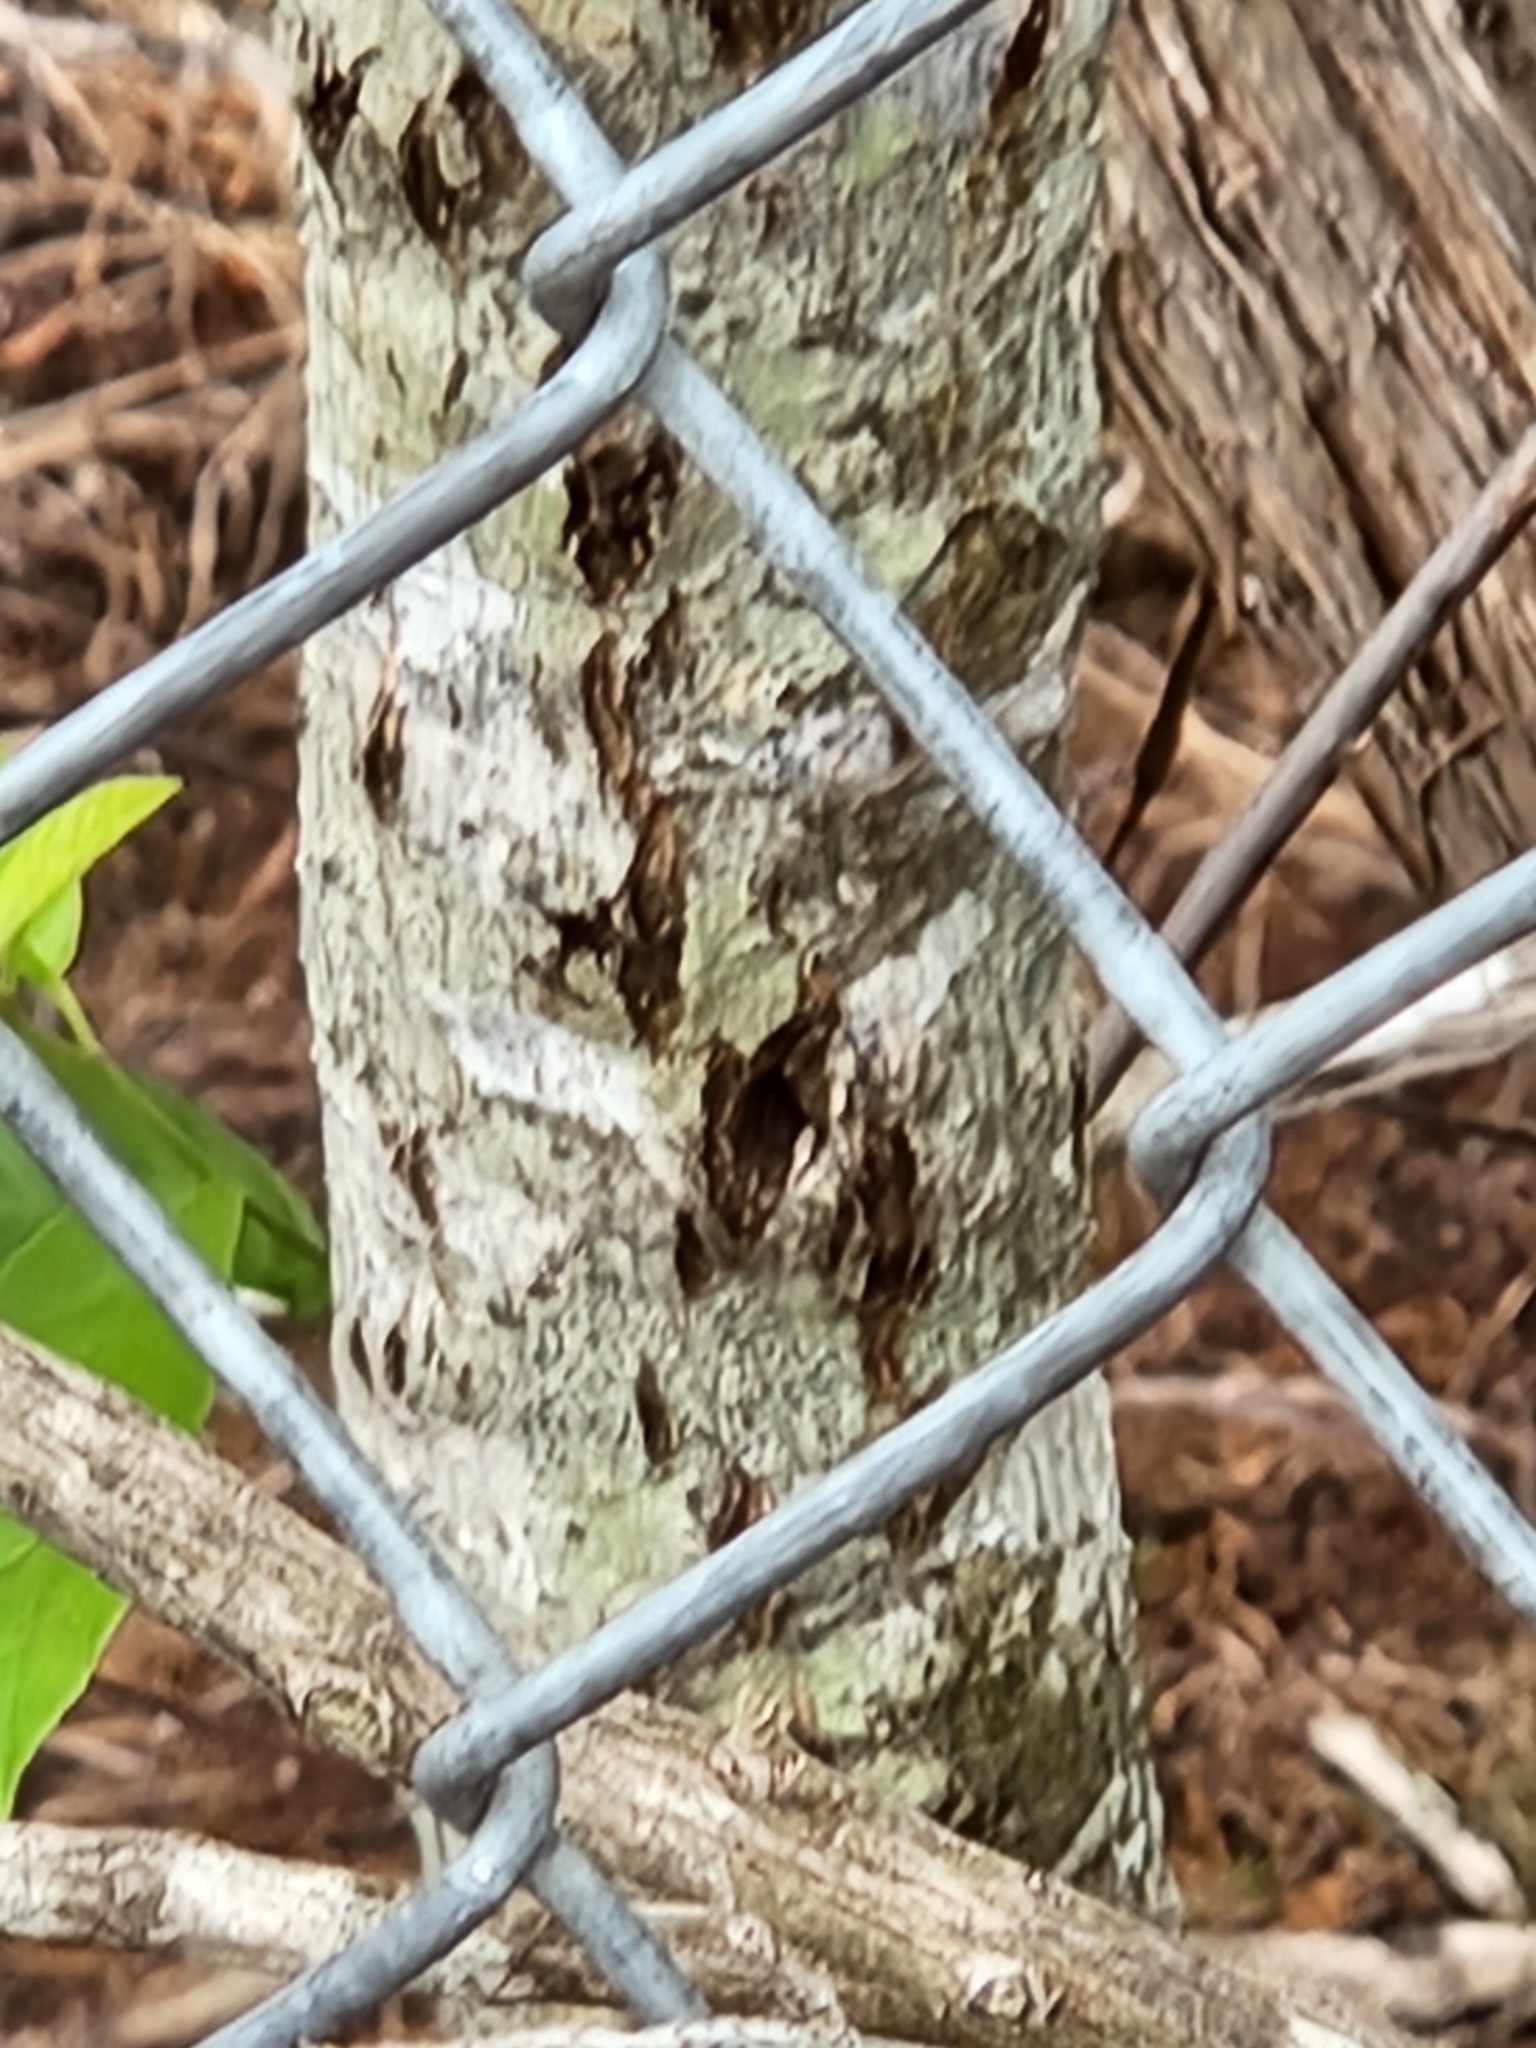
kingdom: Plantae
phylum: Tracheophyta
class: Magnoliopsida
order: Rosales
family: Rhamnaceae
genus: Frangula
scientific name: Frangula caroliniana
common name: Carolina buckthorn
